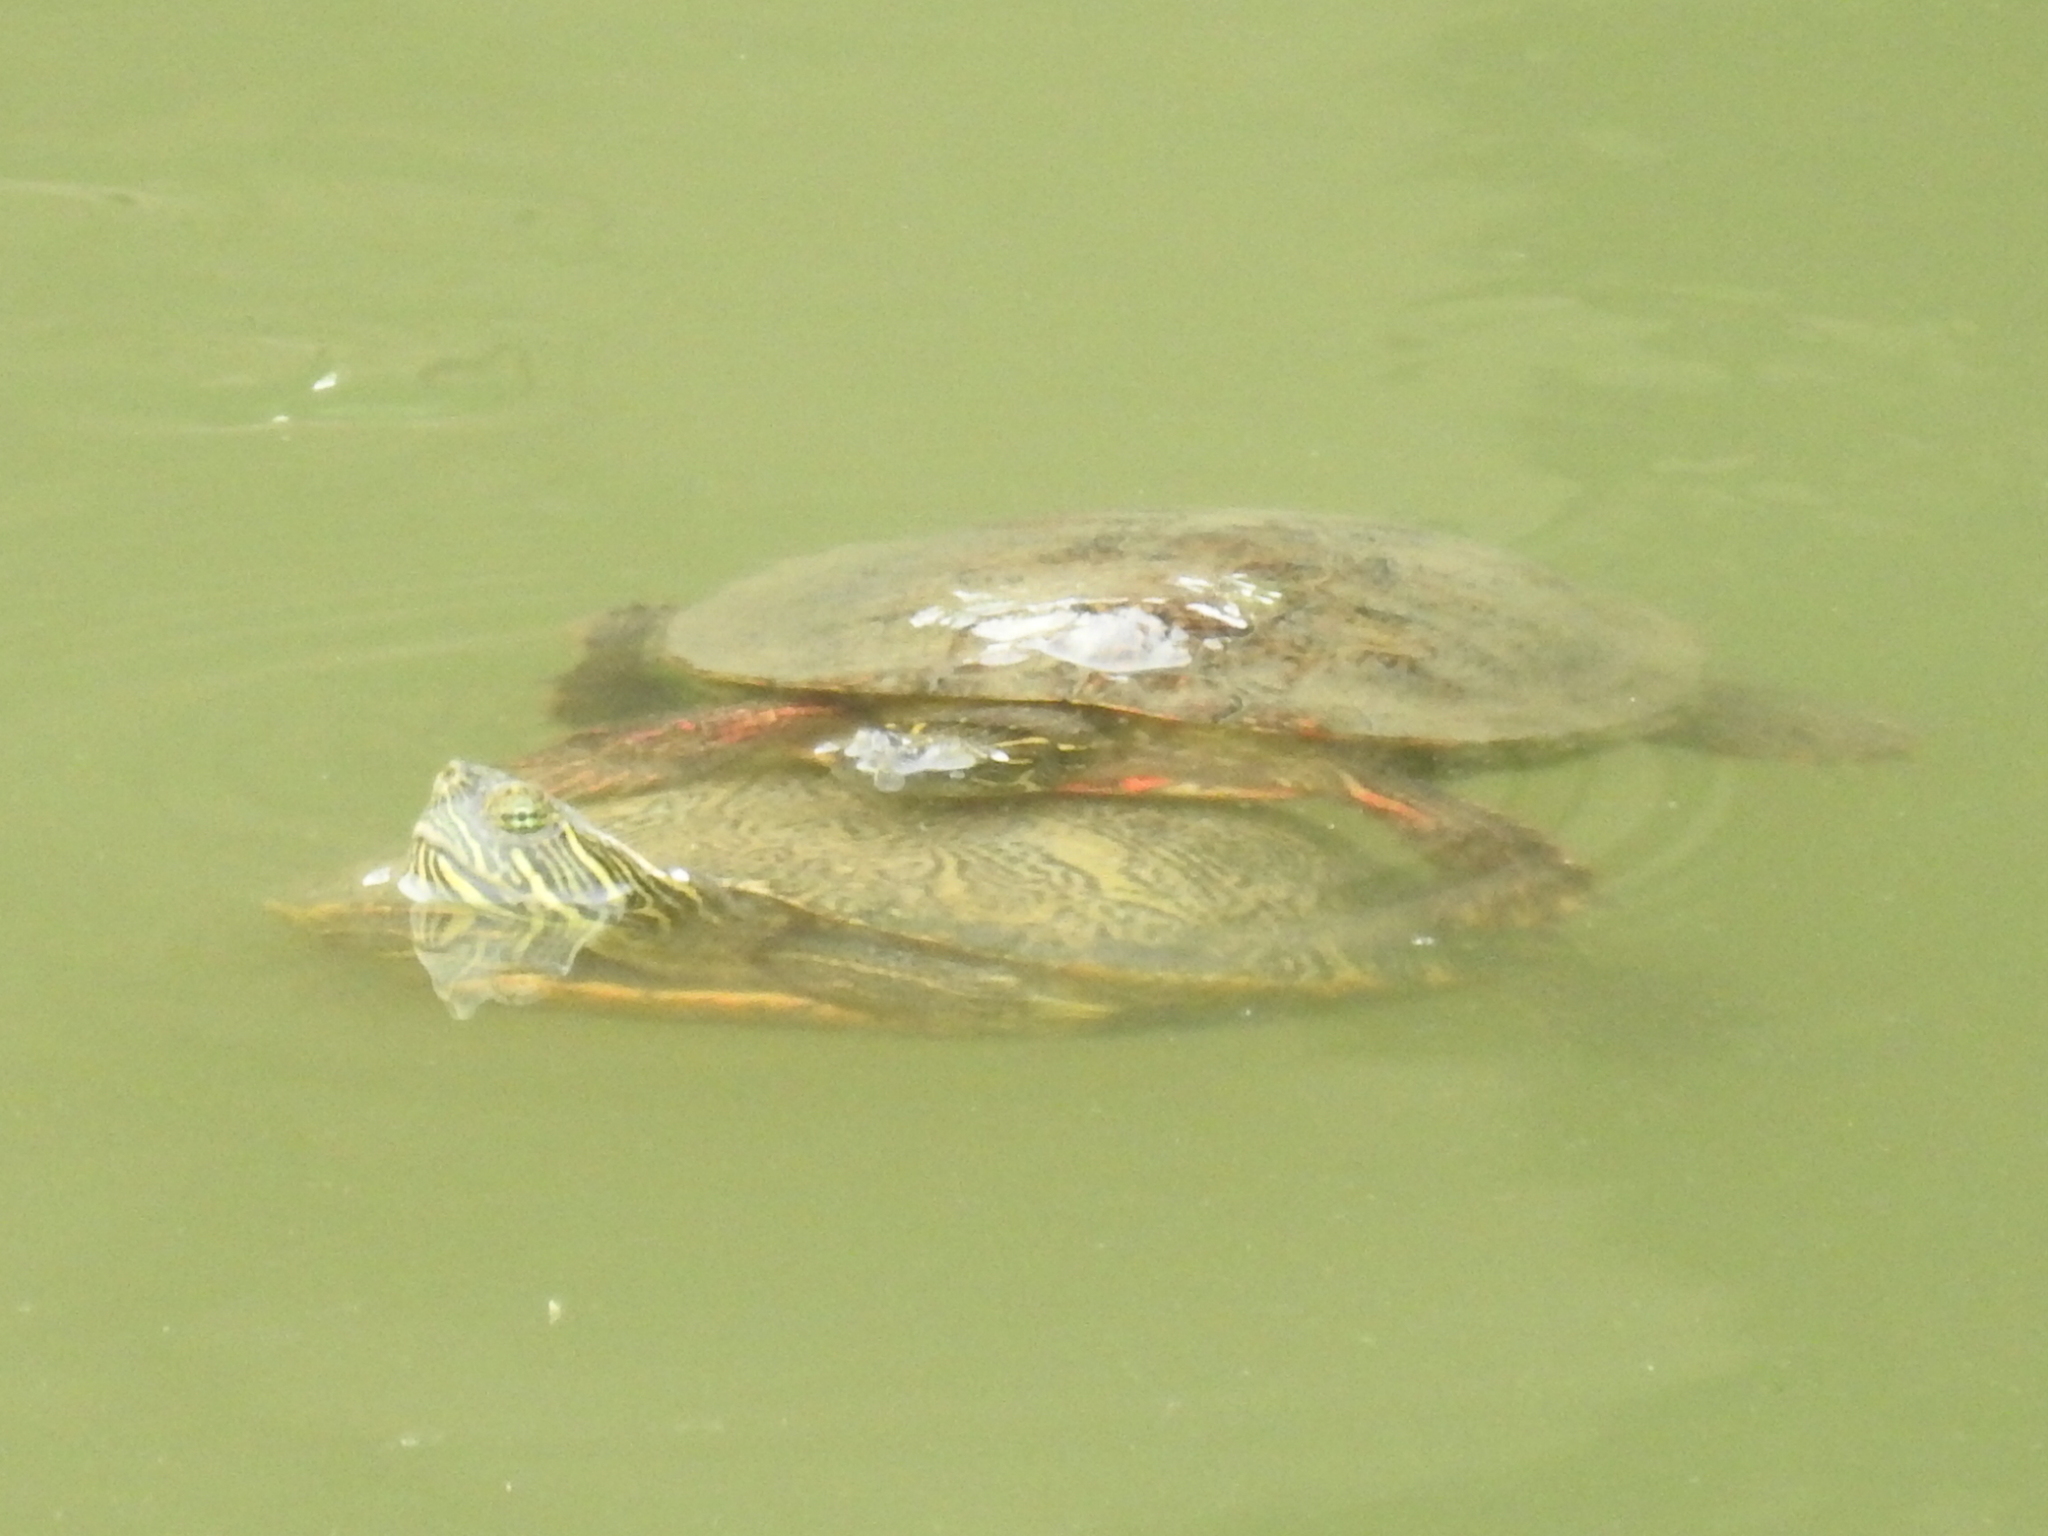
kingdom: Animalia
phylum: Chordata
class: Testudines
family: Emydidae
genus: Pseudemys
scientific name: Pseudemys texana
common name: Texas river cooter
